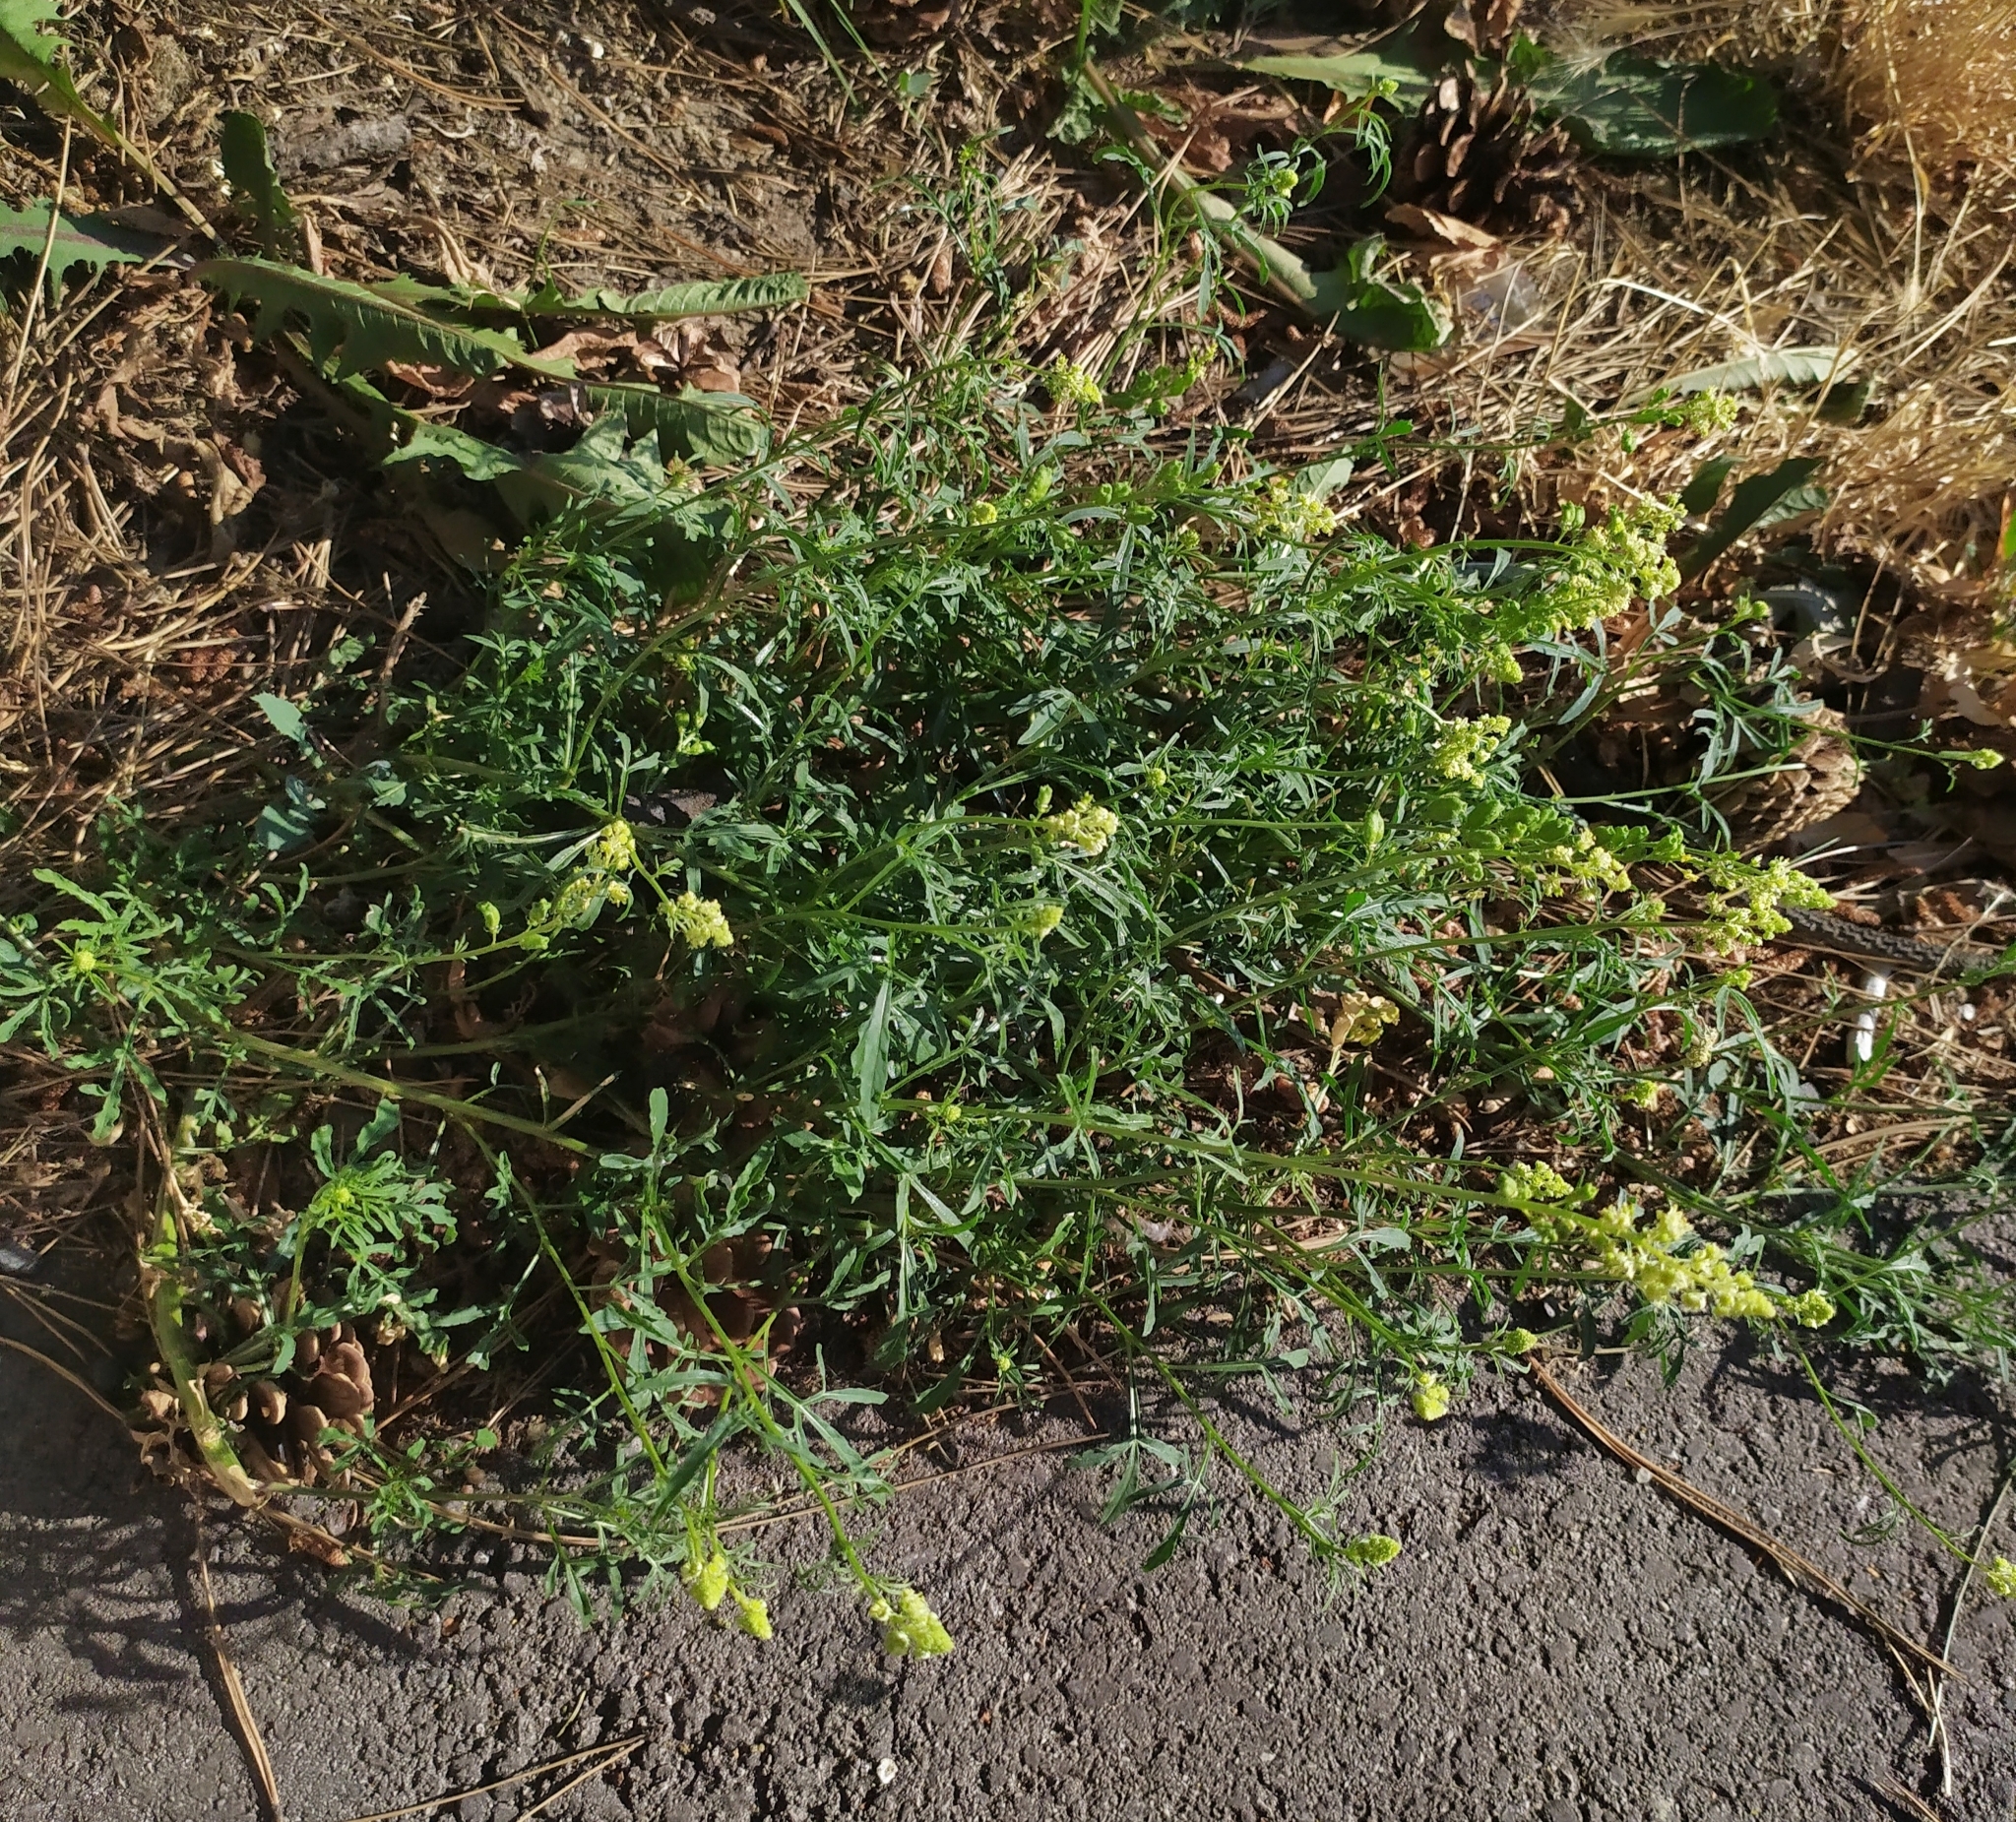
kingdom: Plantae
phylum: Tracheophyta
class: Magnoliopsida
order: Brassicales
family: Resedaceae
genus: Reseda
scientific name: Reseda lutea
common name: Wild mignonette
